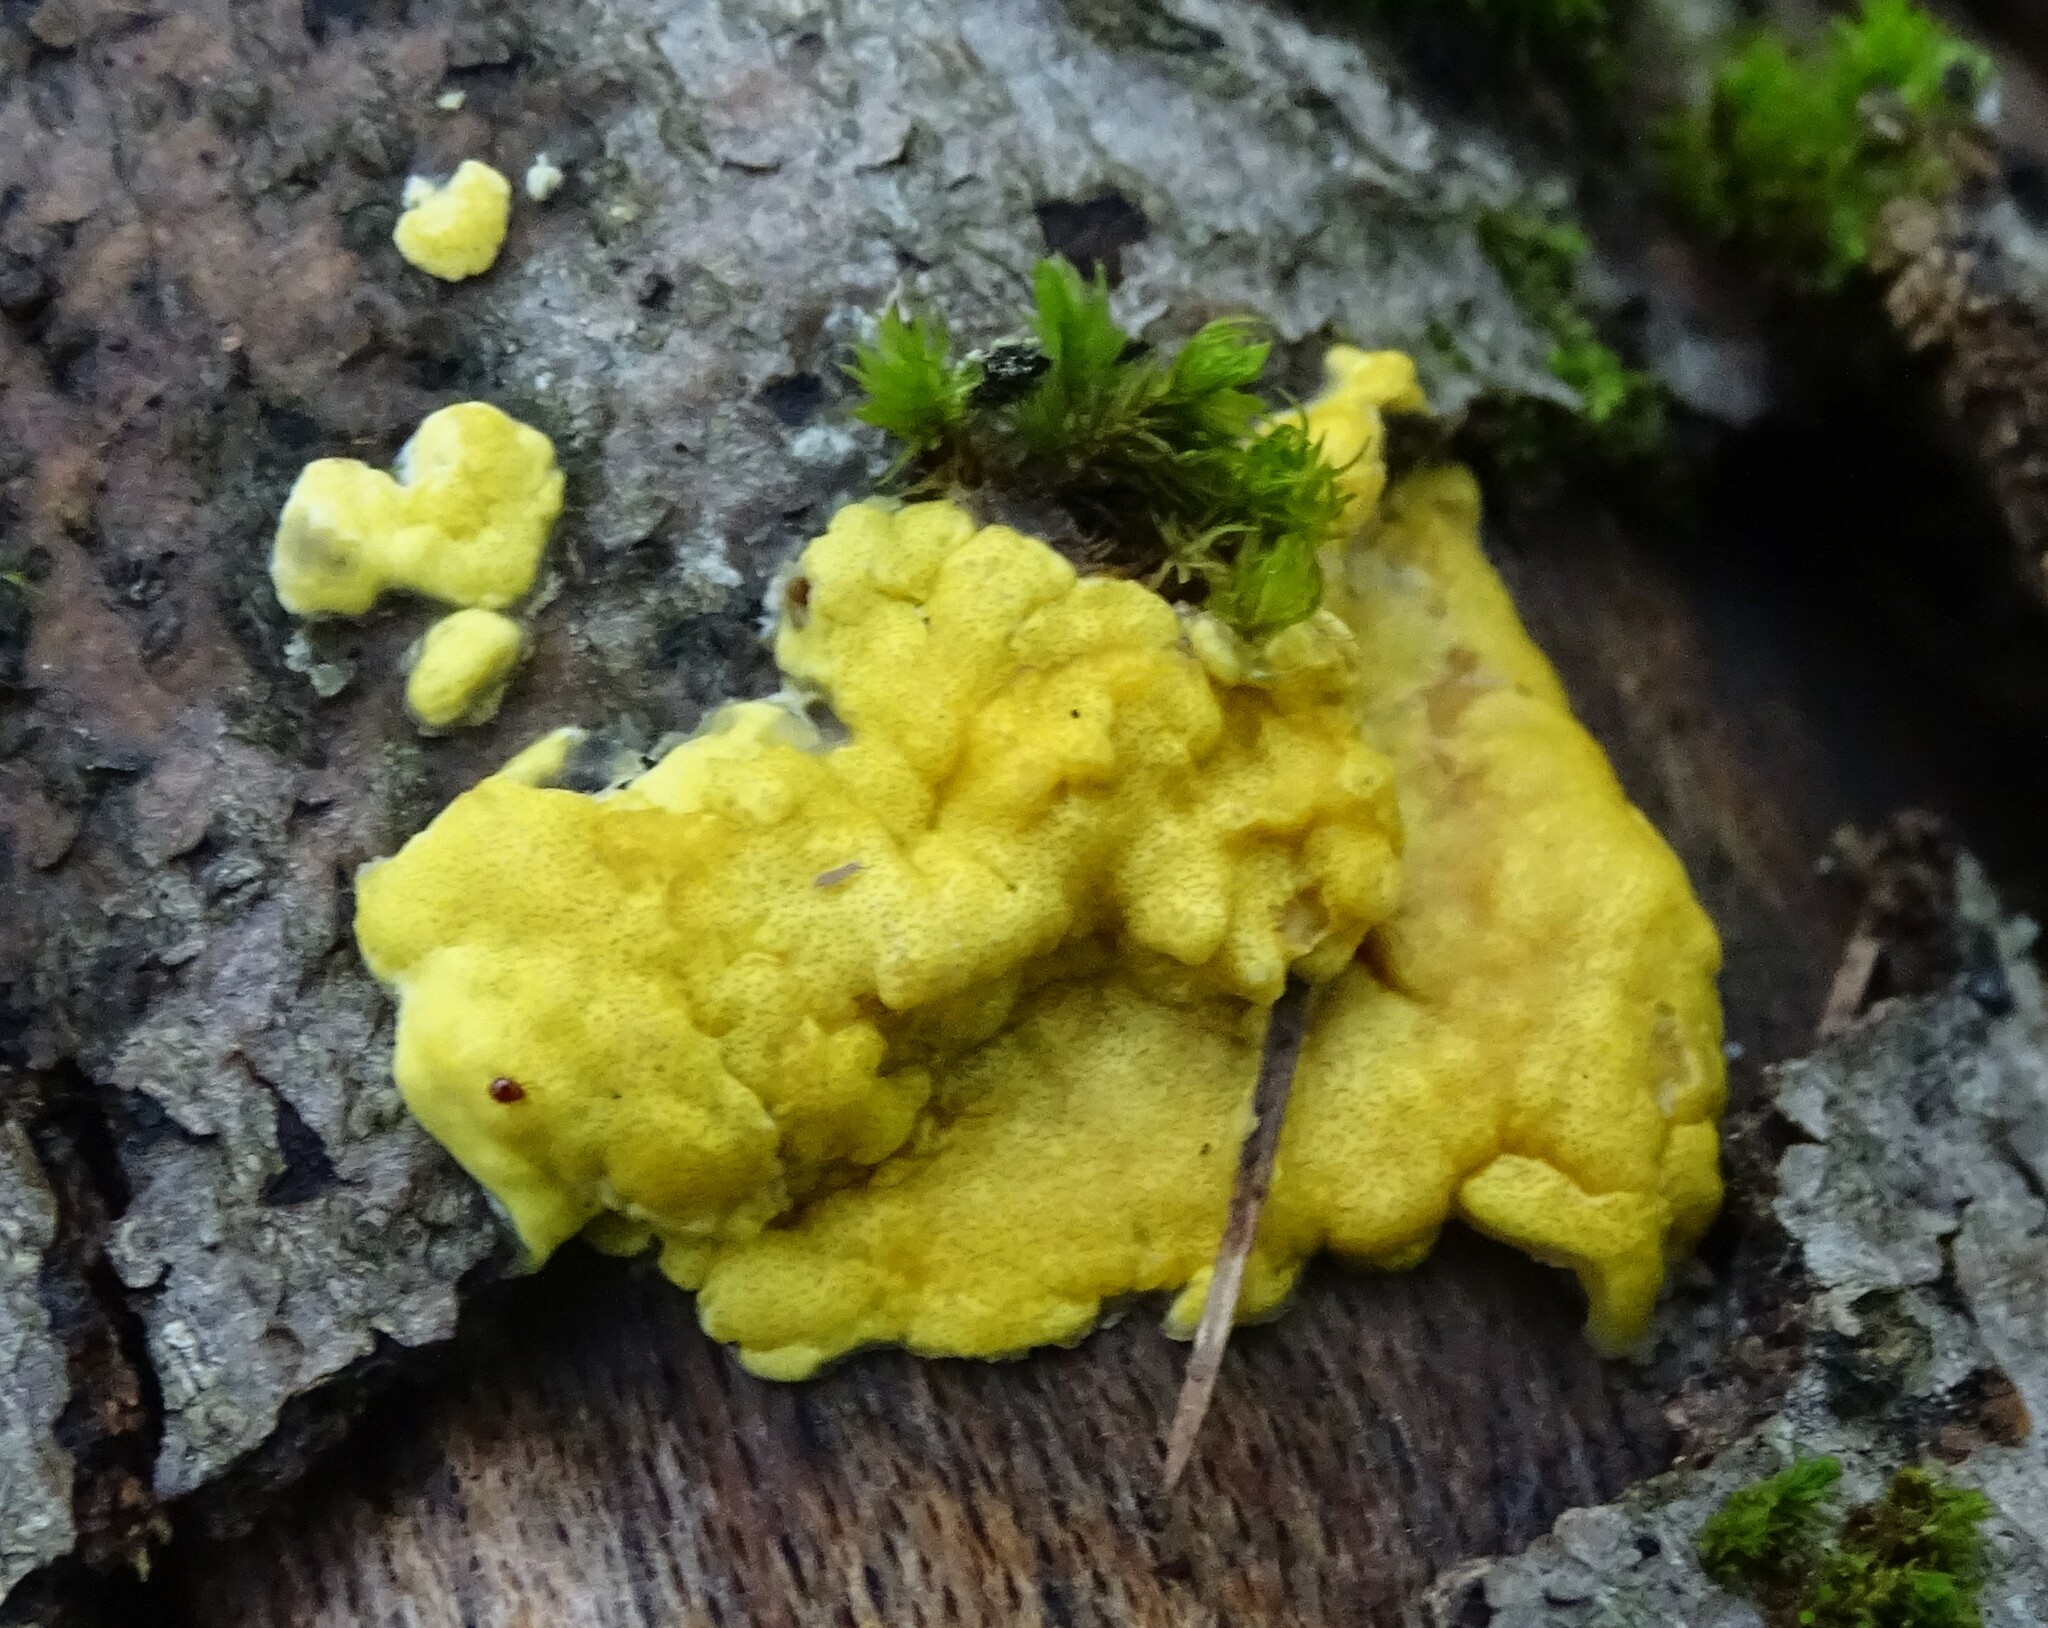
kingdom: Fungi
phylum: Ascomycota
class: Sordariomycetes
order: Hypocreales
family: Hypocreaceae
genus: Trichoderma
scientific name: Trichoderma sulphureum
